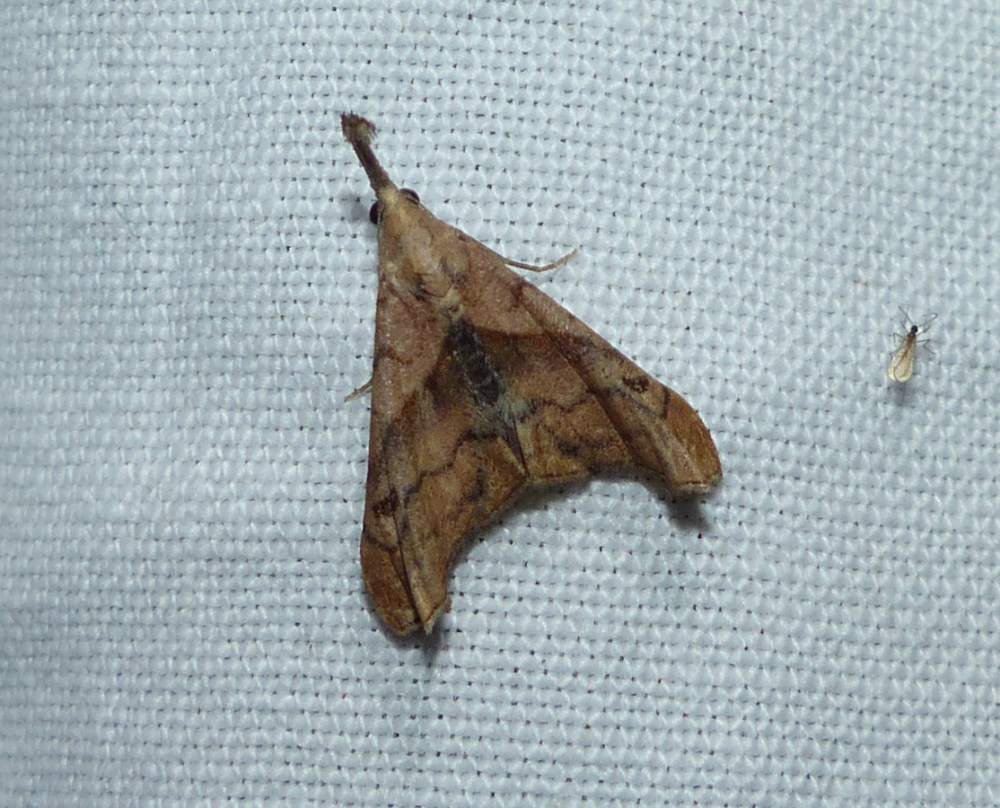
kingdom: Animalia
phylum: Arthropoda
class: Insecta
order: Lepidoptera
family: Erebidae
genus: Palthis
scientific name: Palthis angulalis
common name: Dark-spotted palthis moth
